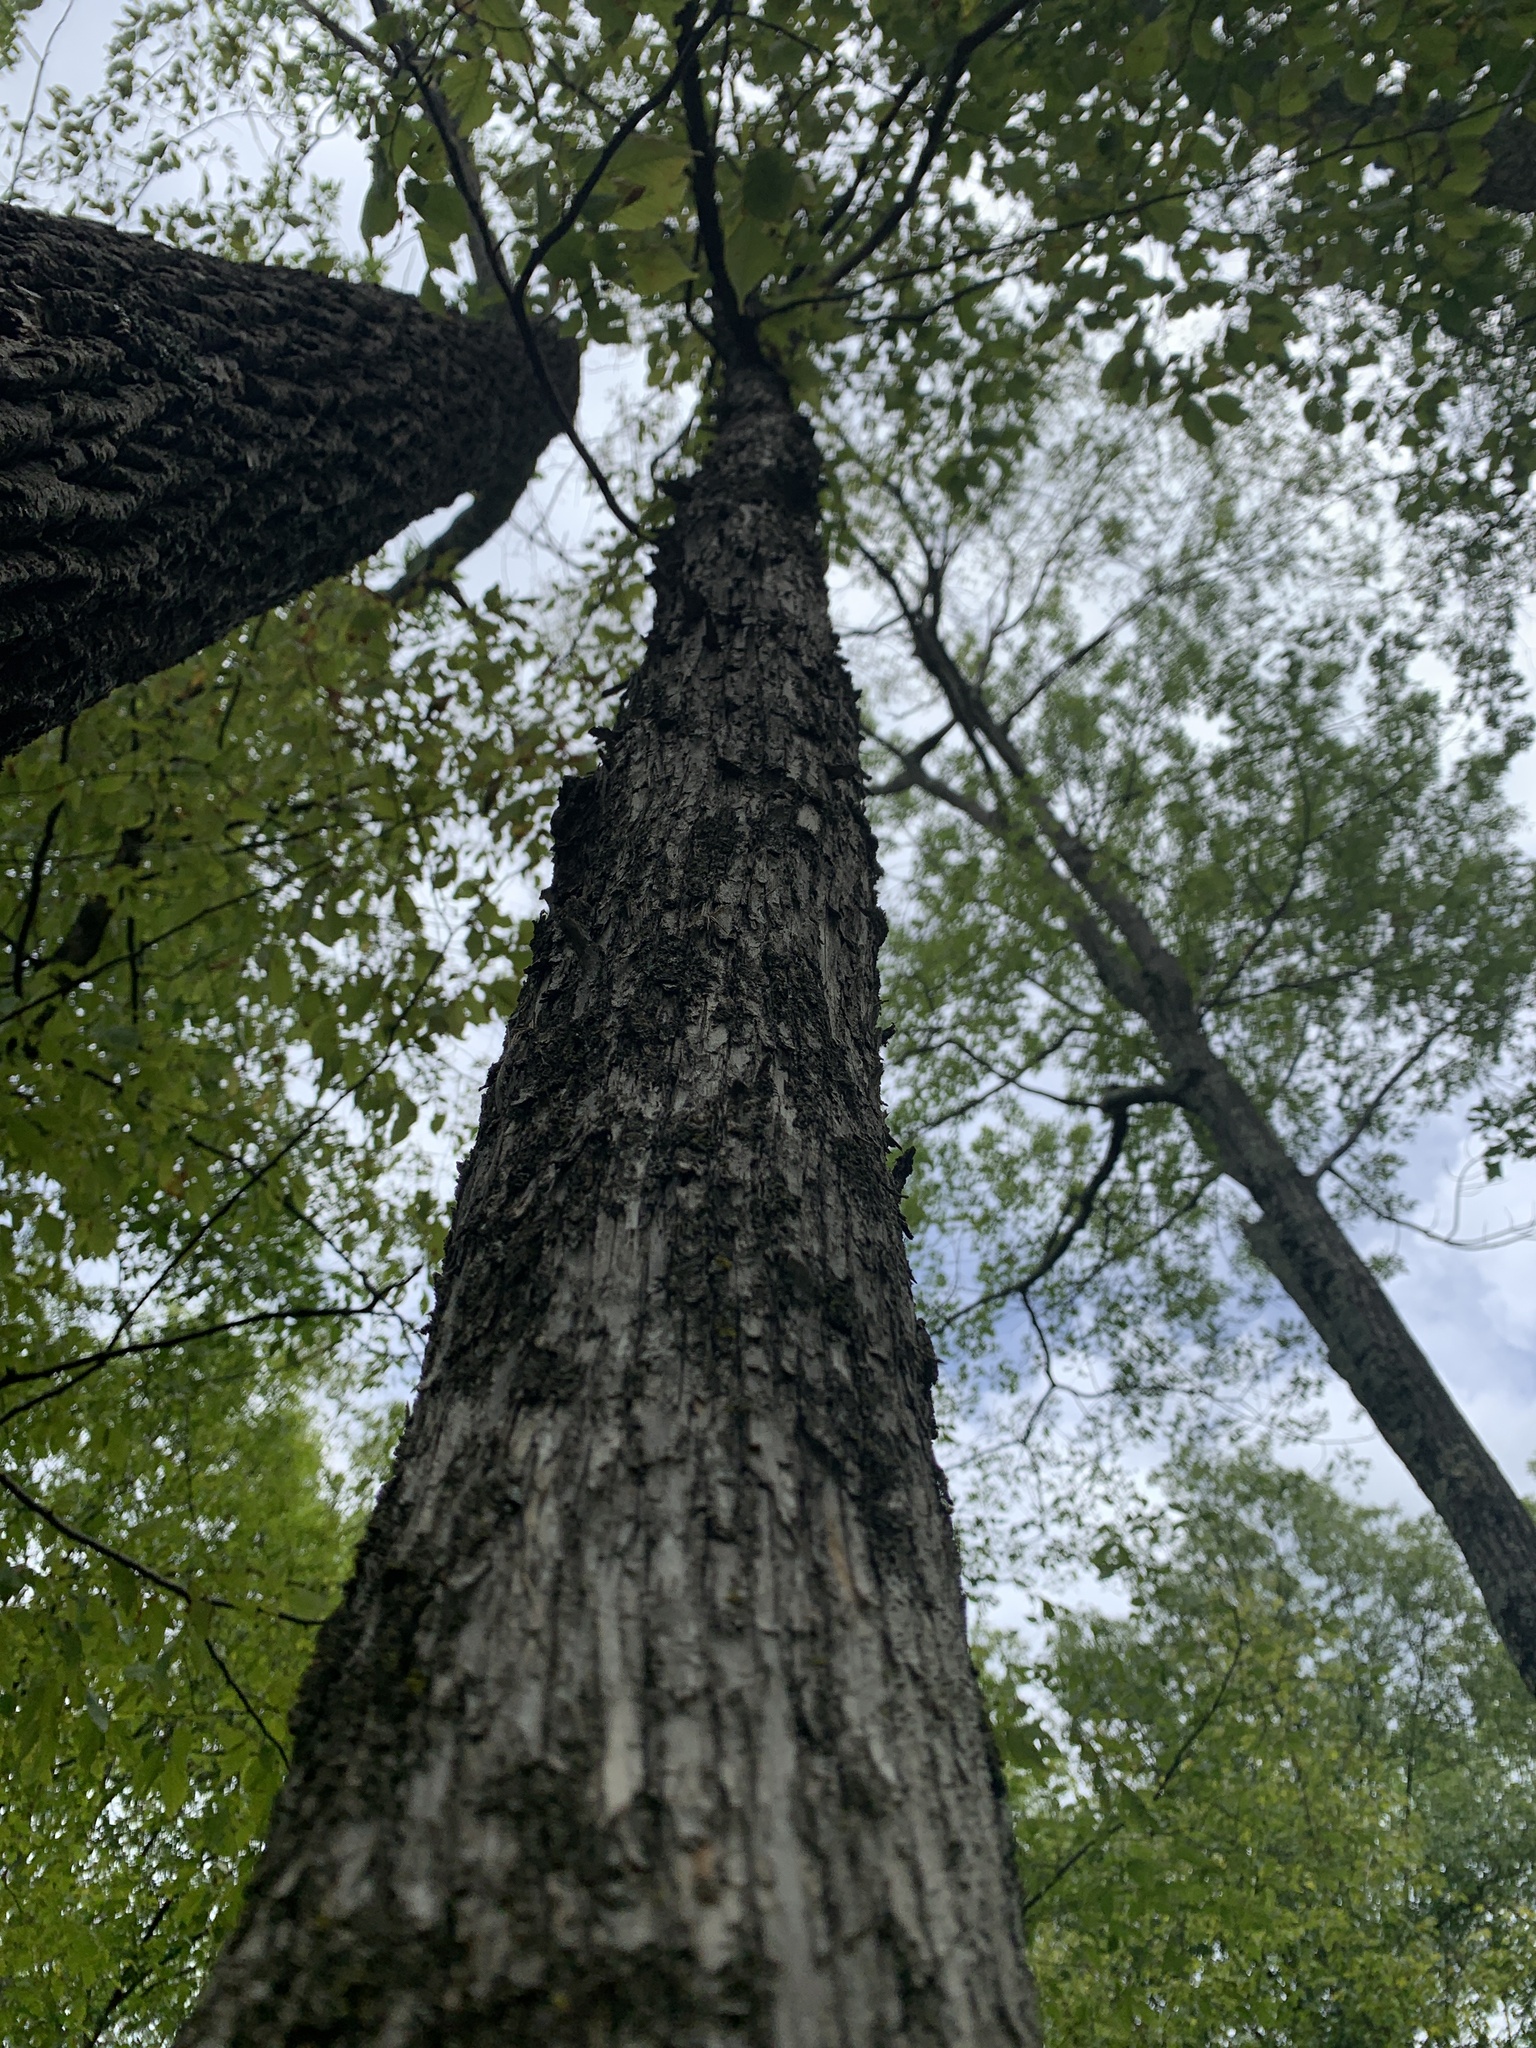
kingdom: Plantae
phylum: Tracheophyta
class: Magnoliopsida
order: Fagales
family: Betulaceae
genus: Ostrya
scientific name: Ostrya virginiana
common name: Ironwood
